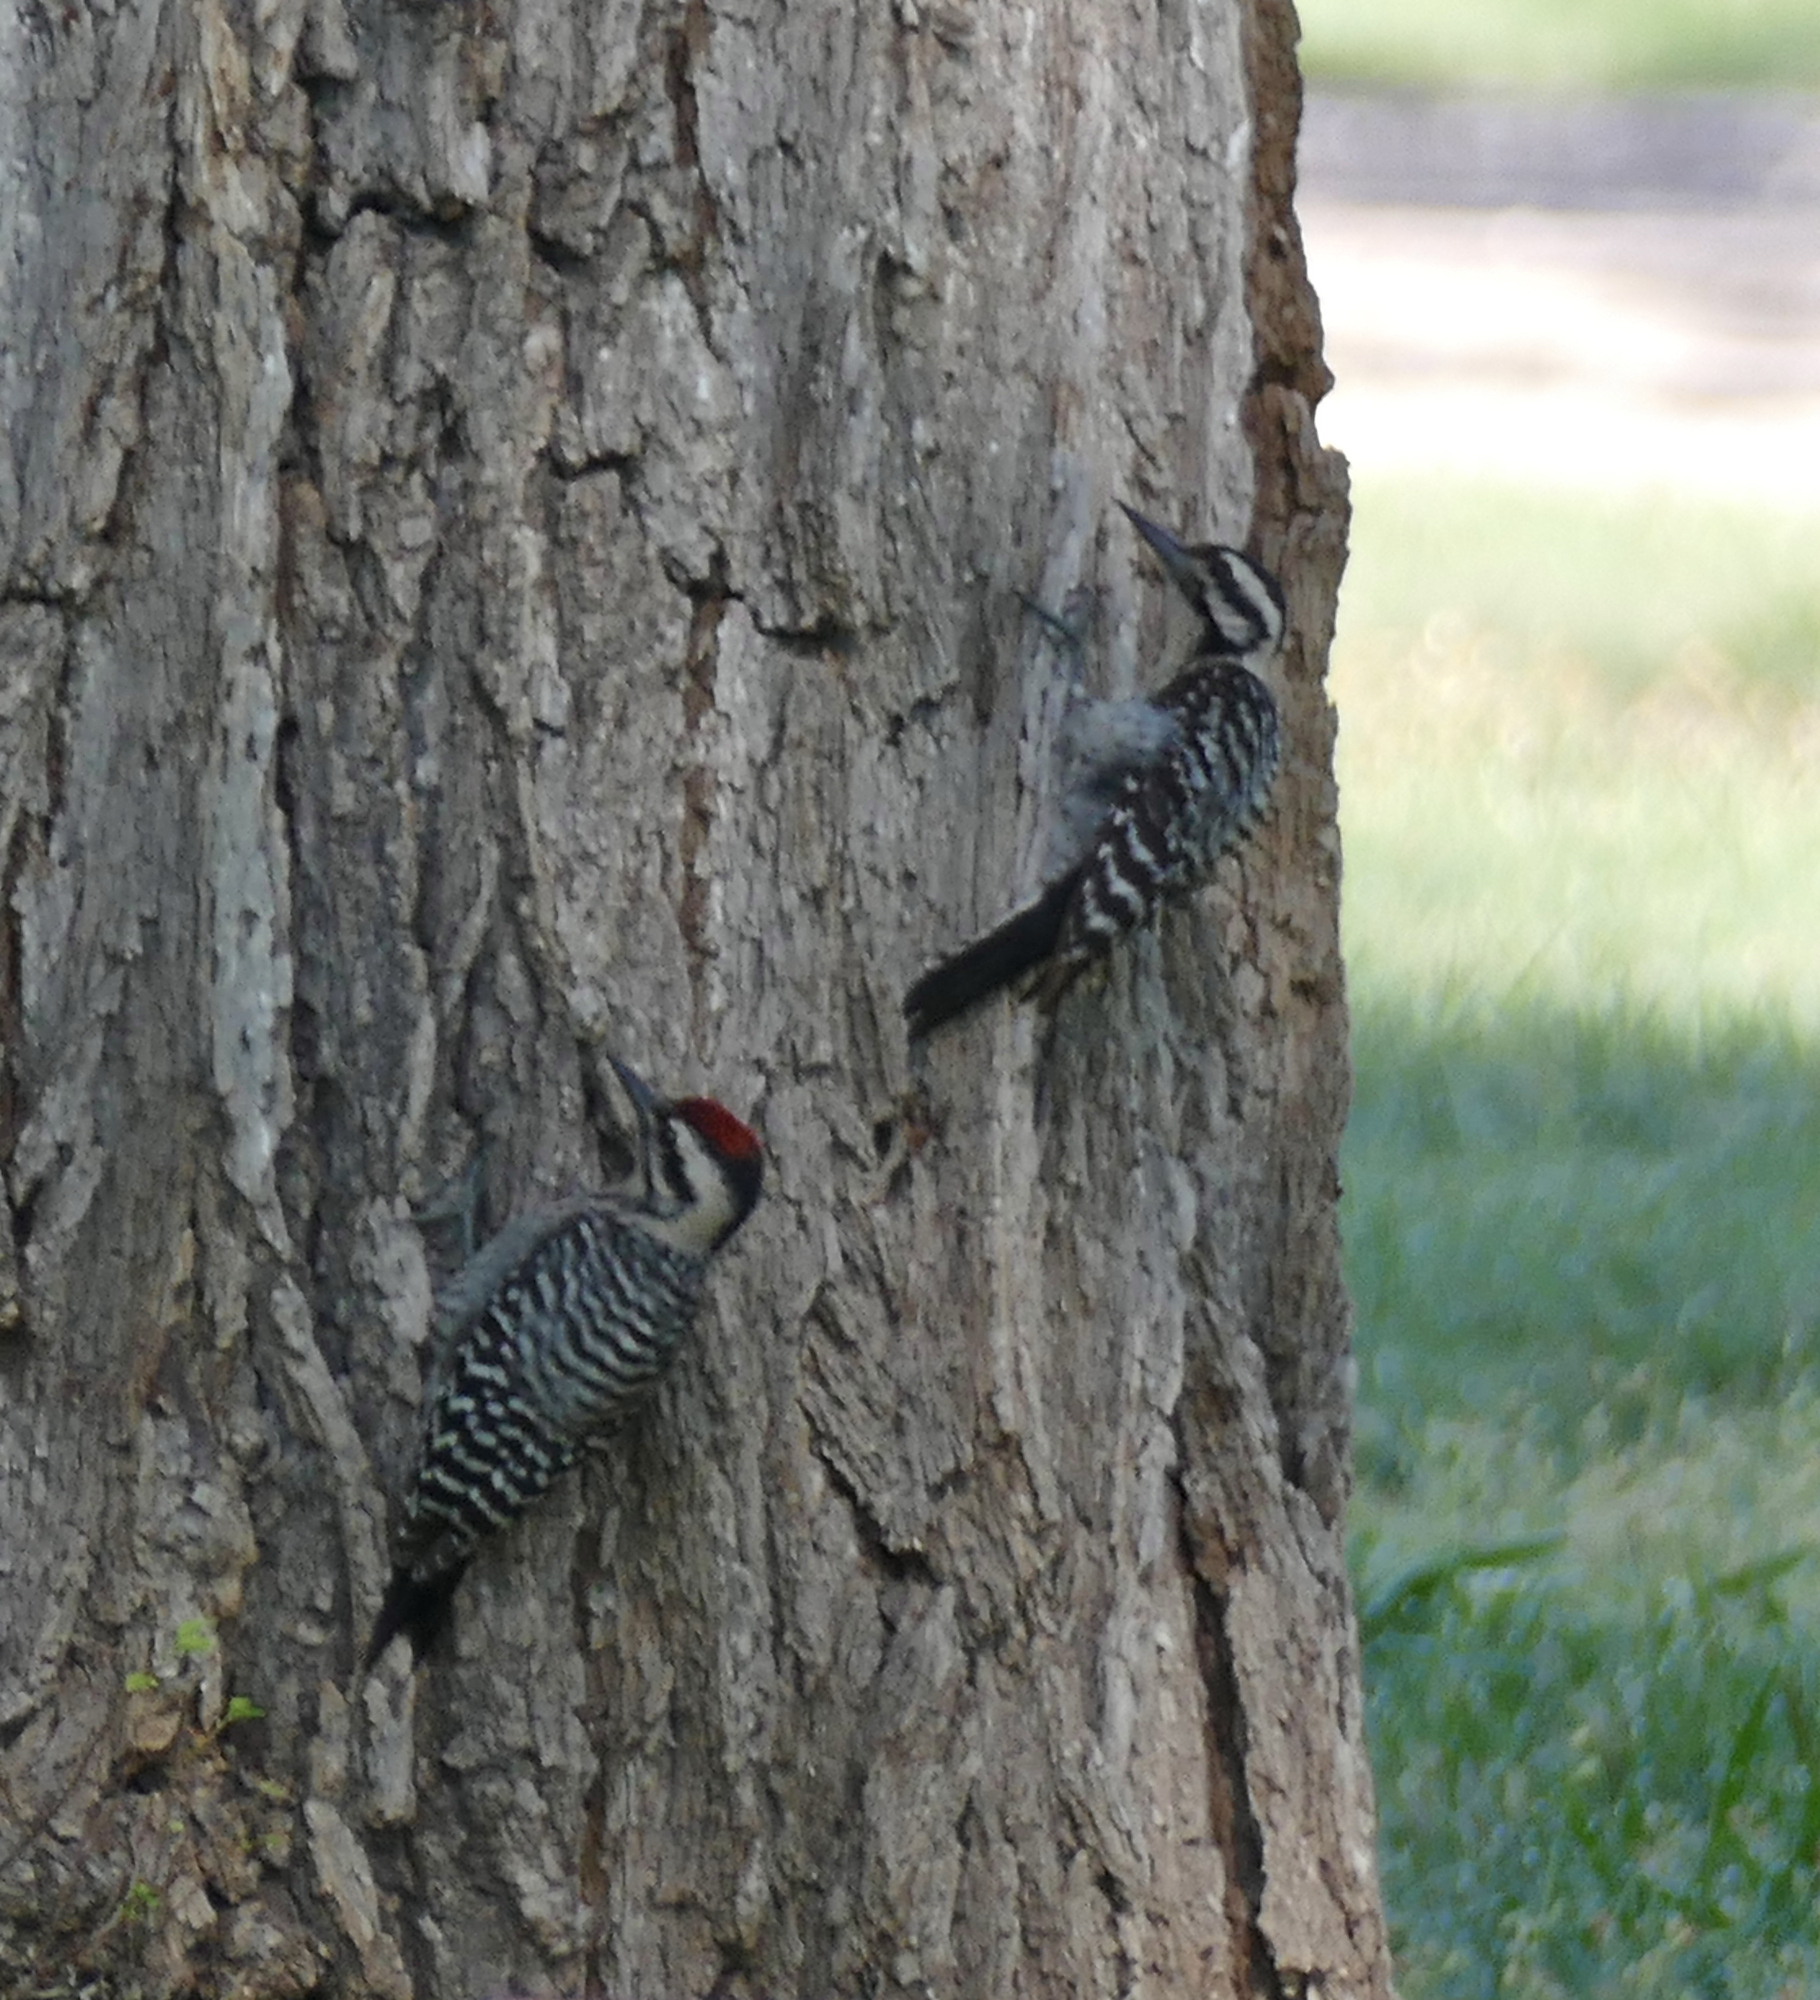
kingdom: Animalia
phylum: Chordata
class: Aves
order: Piciformes
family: Picidae
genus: Dryobates
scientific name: Dryobates scalaris
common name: Ladder-backed woodpecker
